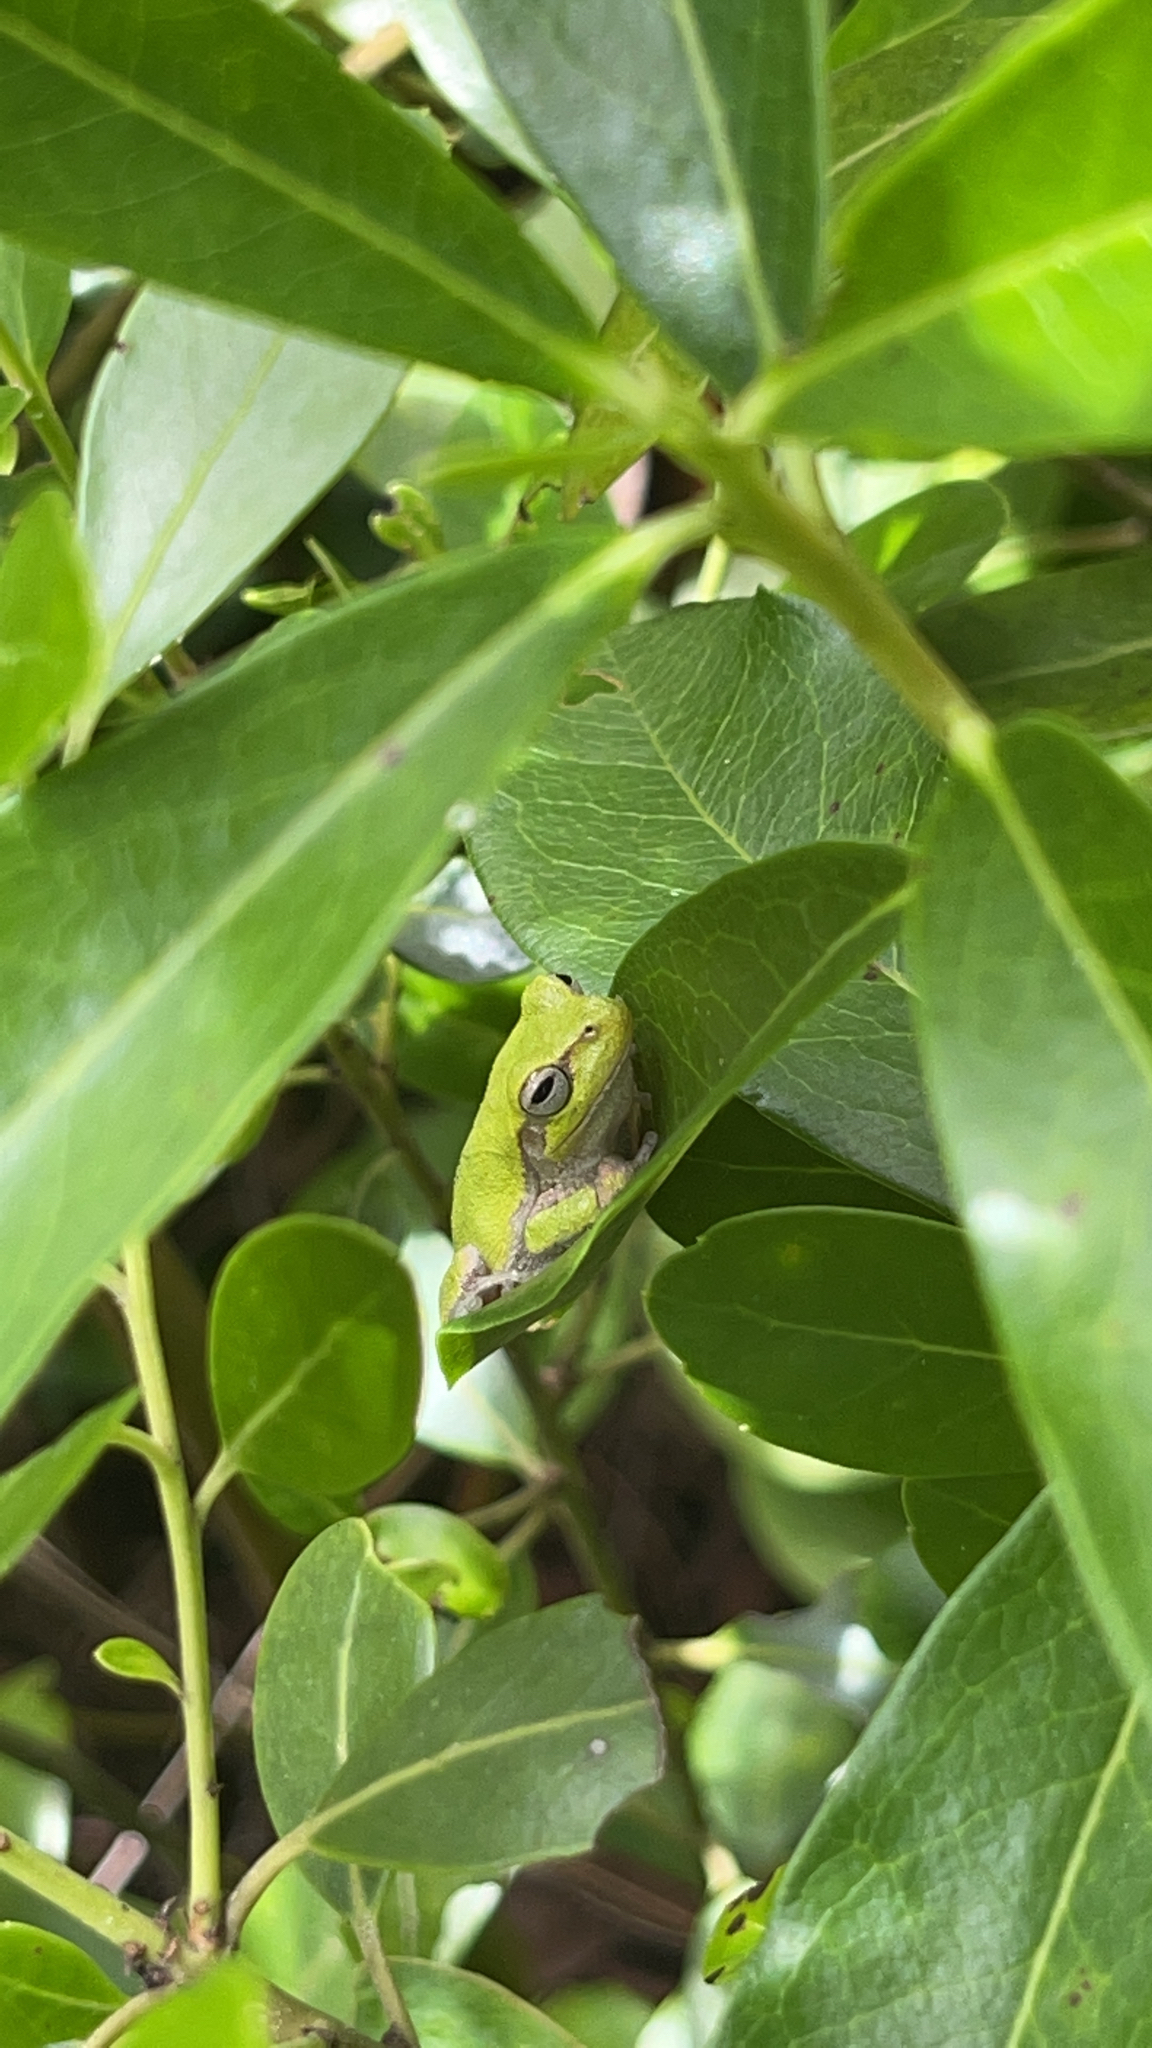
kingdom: Animalia
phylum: Chordata
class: Amphibia
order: Anura
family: Hylidae
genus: Hyla
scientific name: Hyla femoralis
